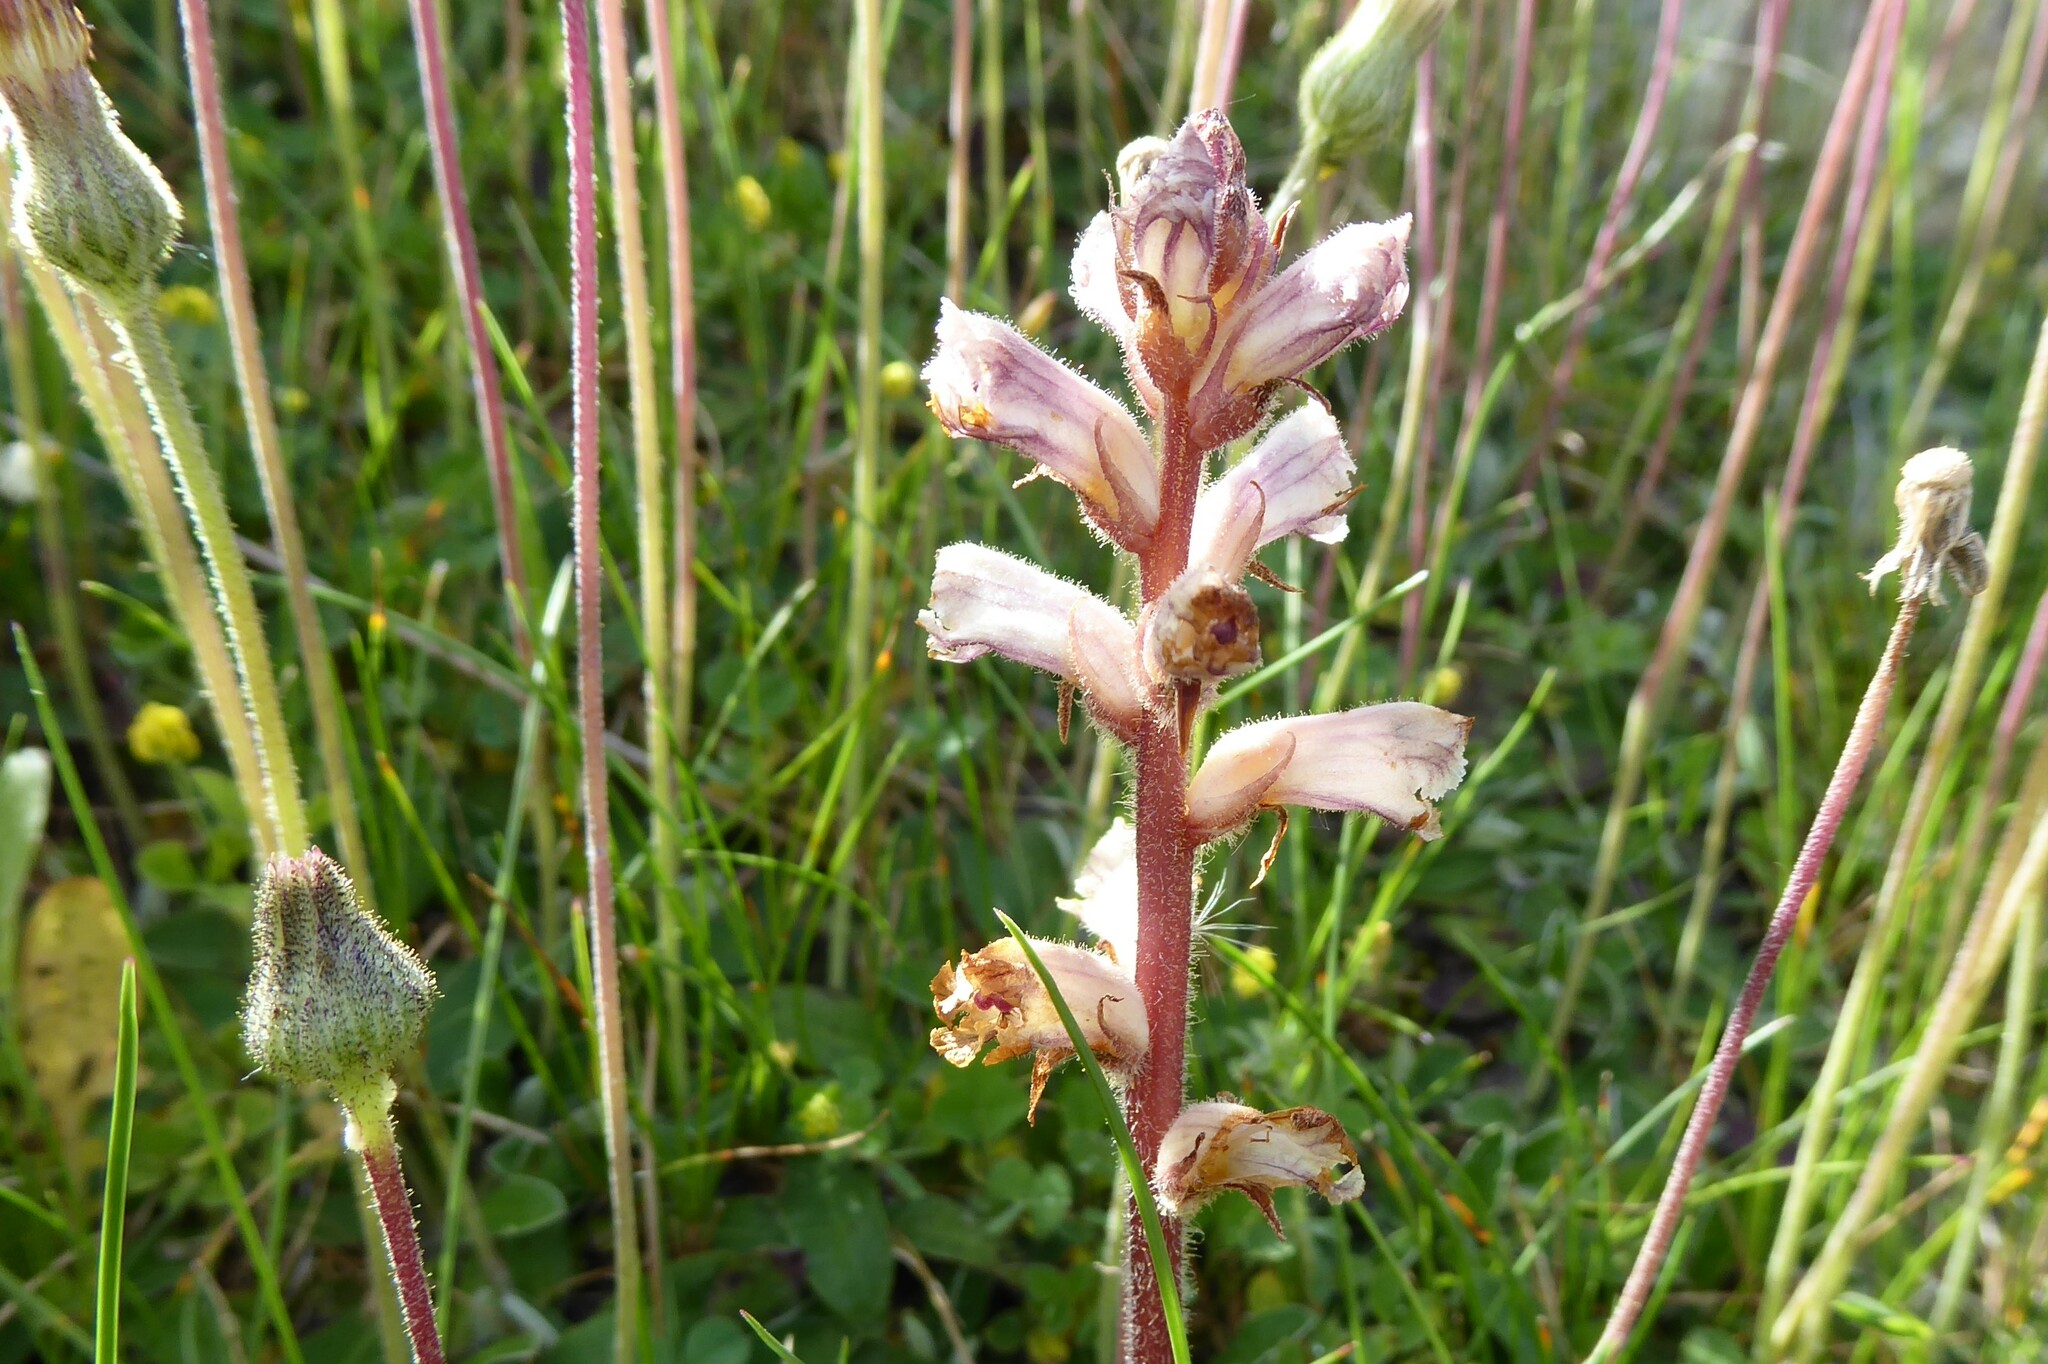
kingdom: Plantae
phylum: Tracheophyta
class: Magnoliopsida
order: Lamiales
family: Orobanchaceae
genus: Orobanche
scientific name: Orobanche minor
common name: Common broomrape
